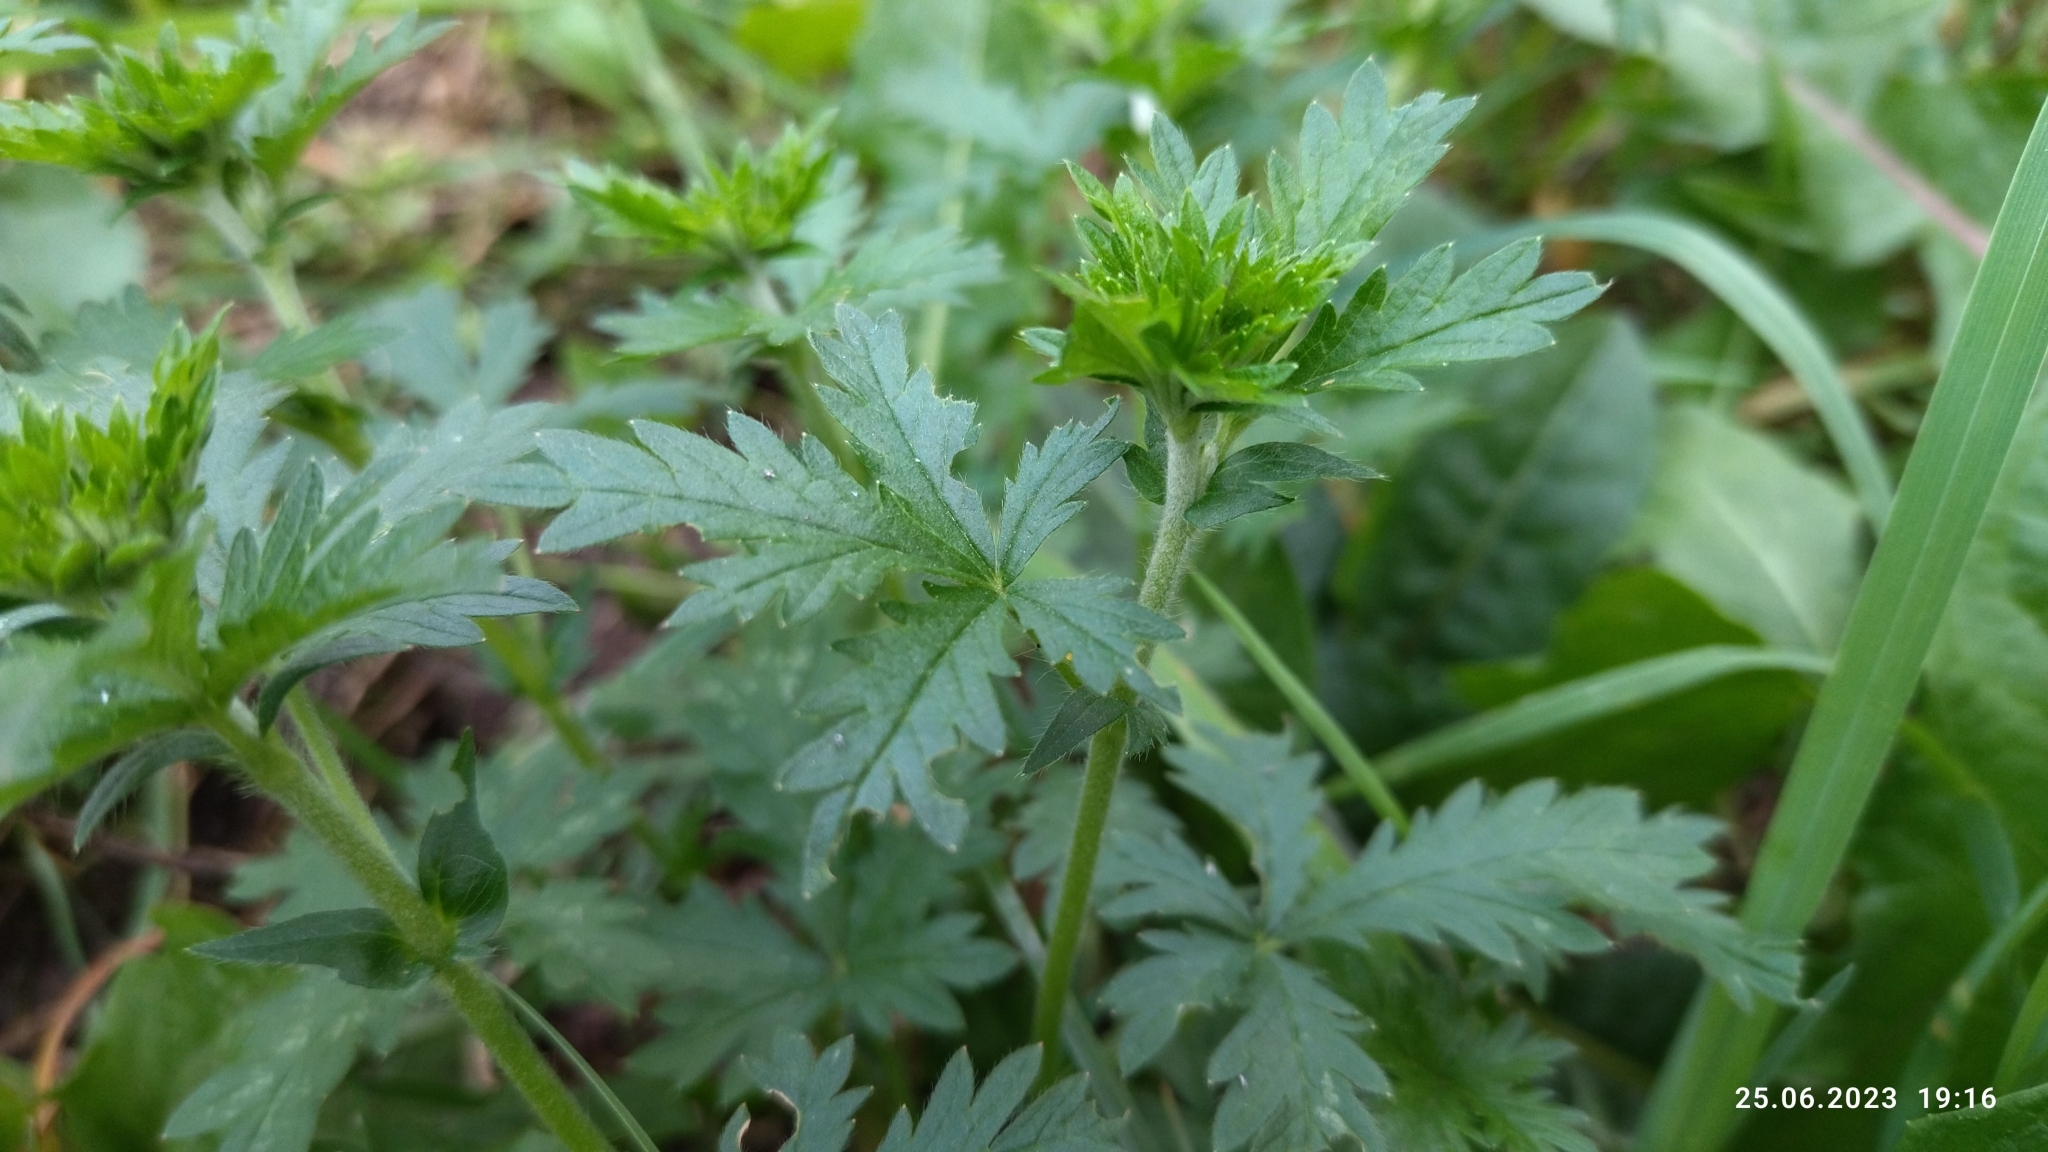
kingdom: Plantae
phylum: Tracheophyta
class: Magnoliopsida
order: Rosales
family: Rosaceae
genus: Potentilla
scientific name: Potentilla intermedia
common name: Downy cinquefoil
